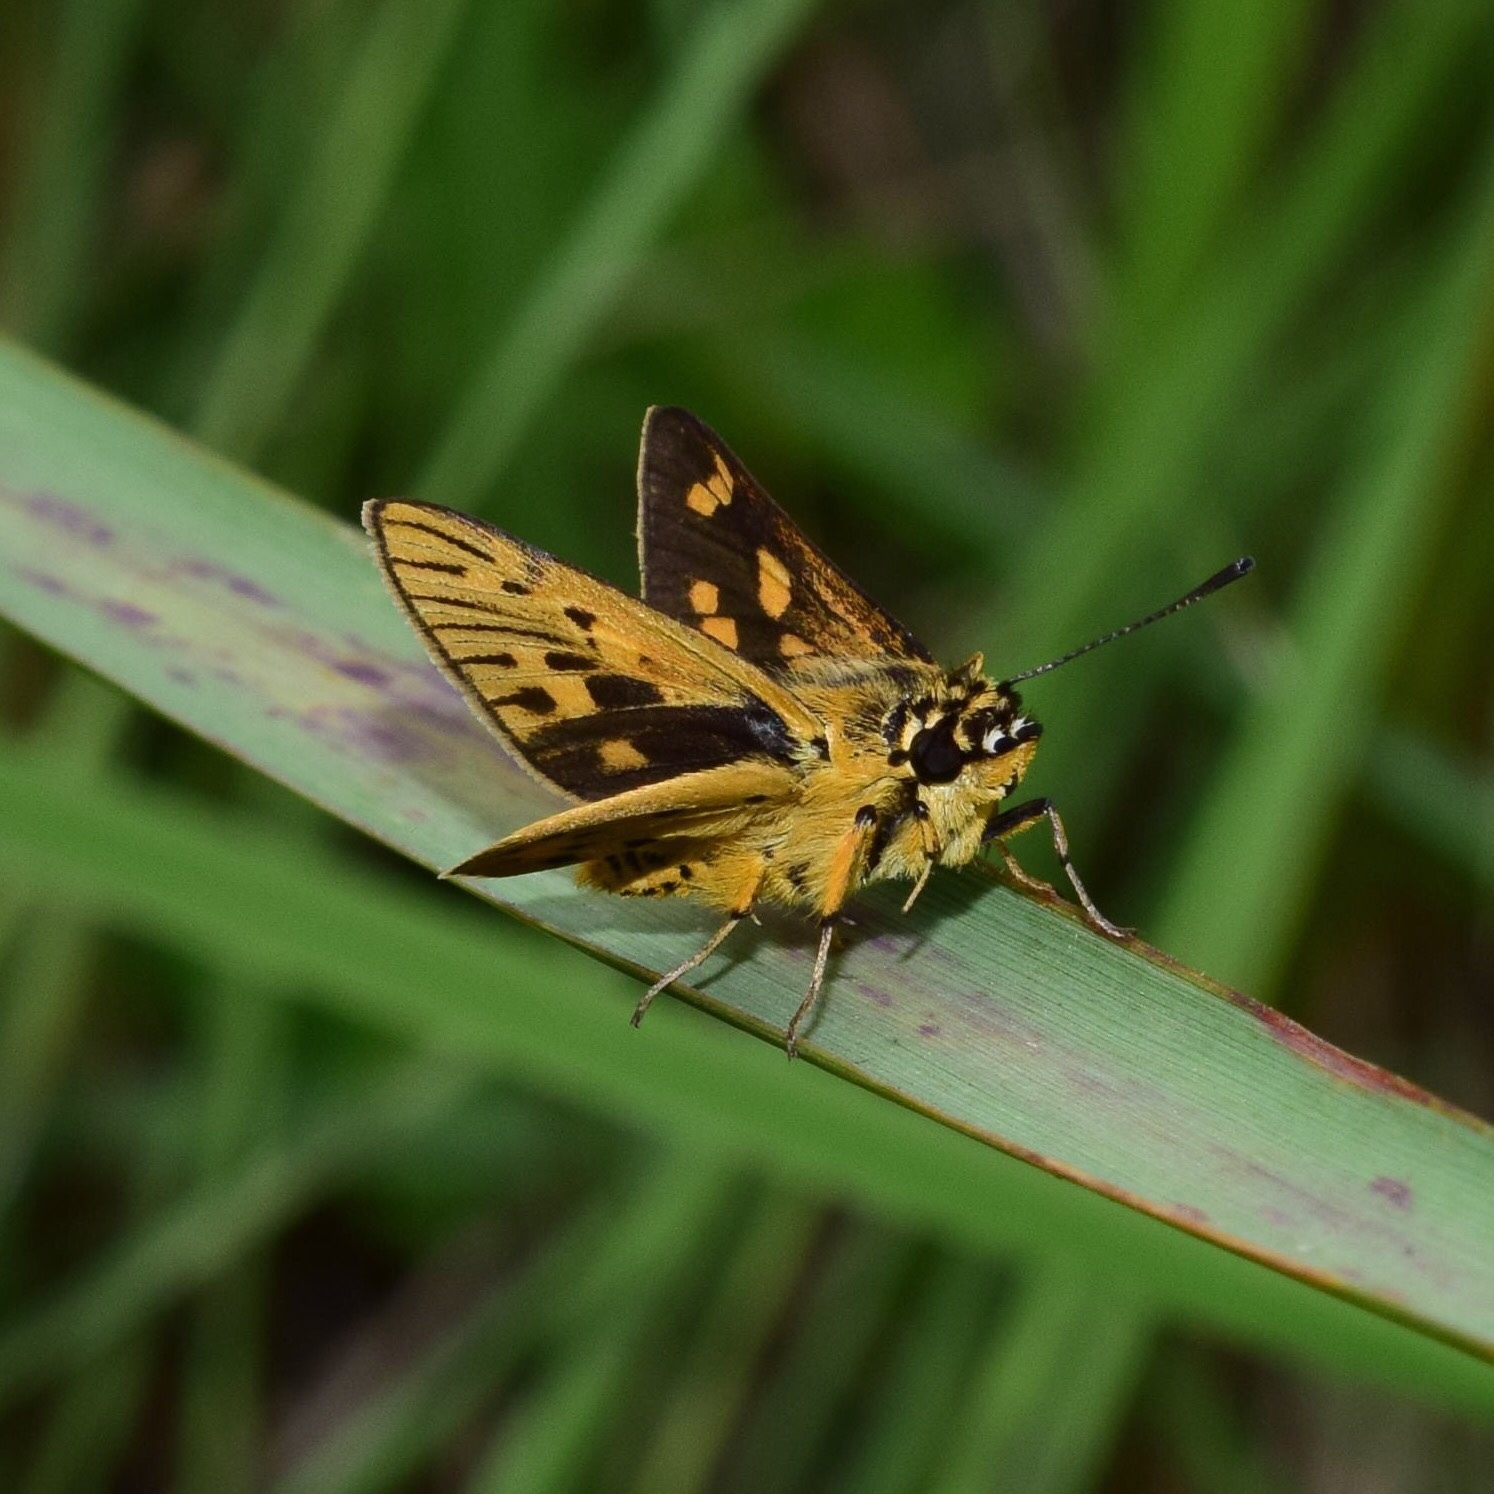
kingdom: Animalia
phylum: Arthropoda
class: Insecta
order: Lepidoptera
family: Hesperiidae
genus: Kedestes
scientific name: Kedestes lepenula
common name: Chequered ranger
